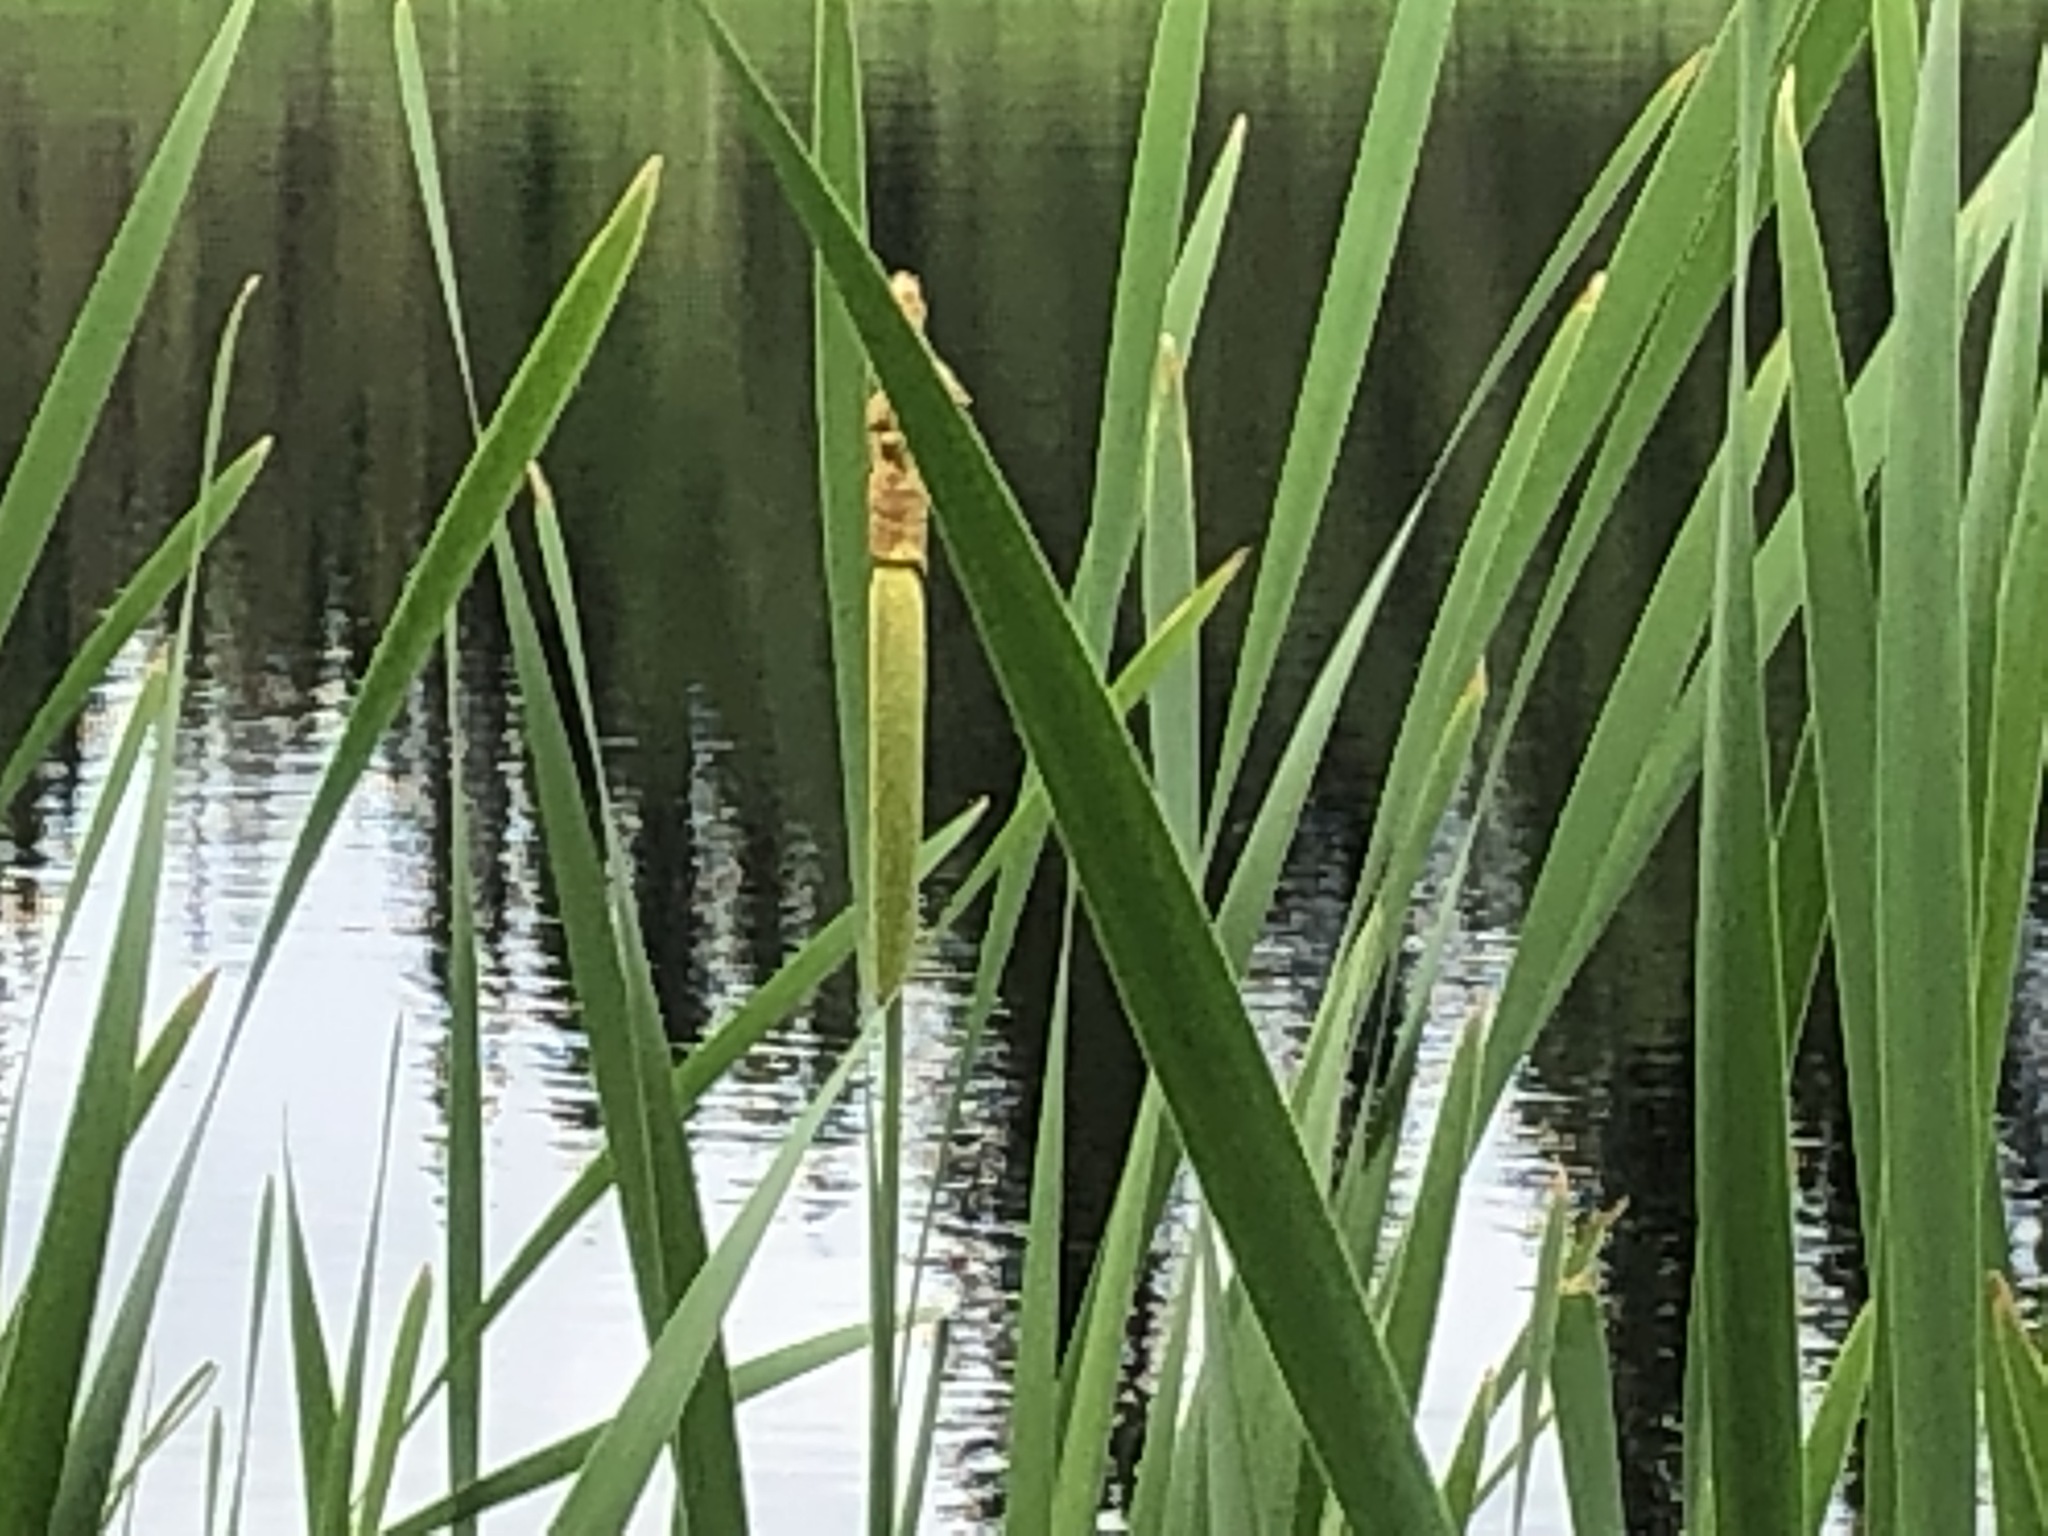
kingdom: Plantae
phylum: Tracheophyta
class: Liliopsida
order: Poales
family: Typhaceae
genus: Typha
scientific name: Typha latifolia
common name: Broadleaf cattail
